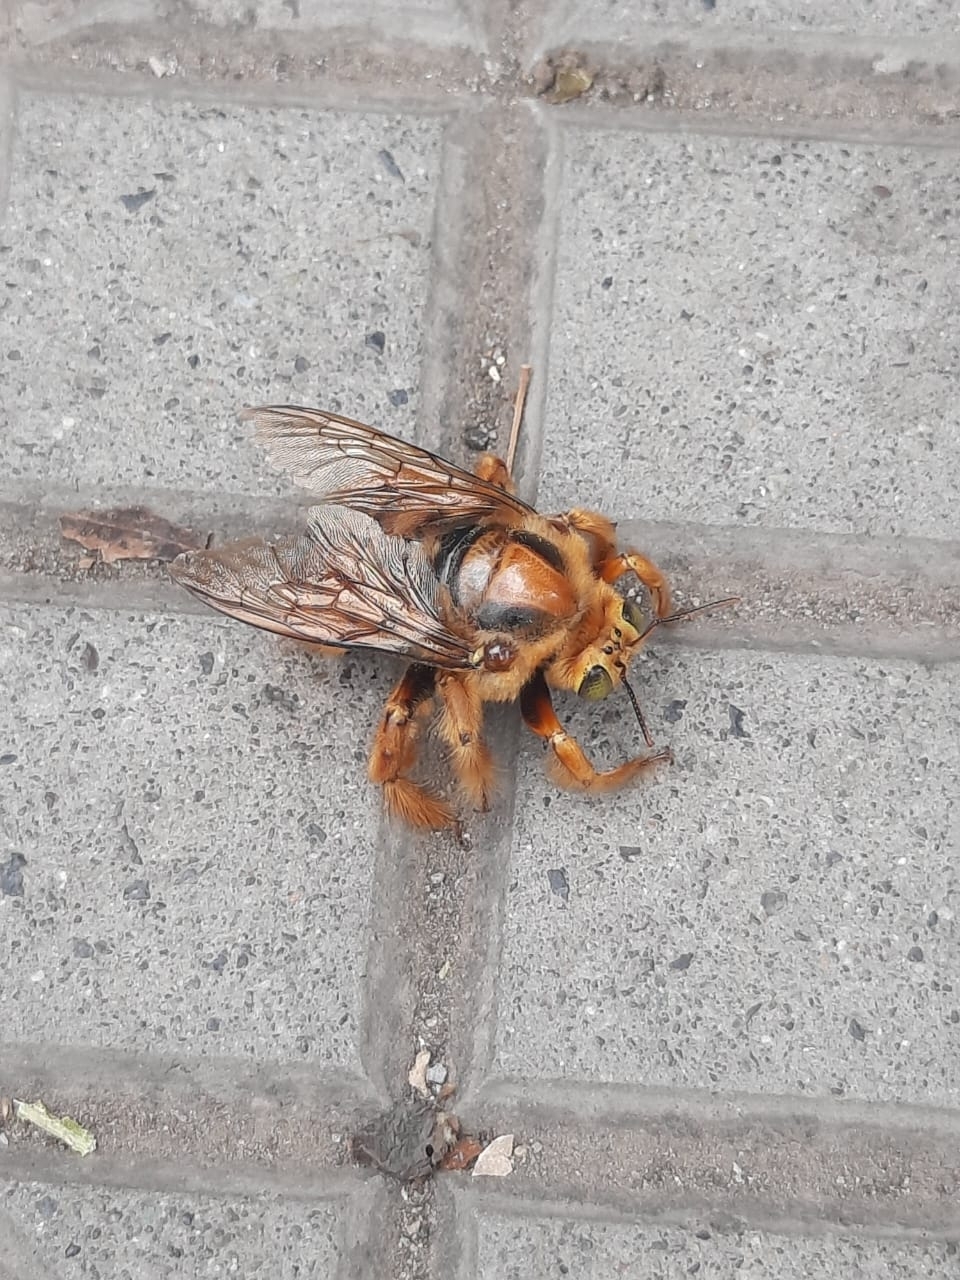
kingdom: Animalia
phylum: Arthropoda
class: Insecta
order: Hymenoptera
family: Apidae
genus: Xylocopa
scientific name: Xylocopa augusti
